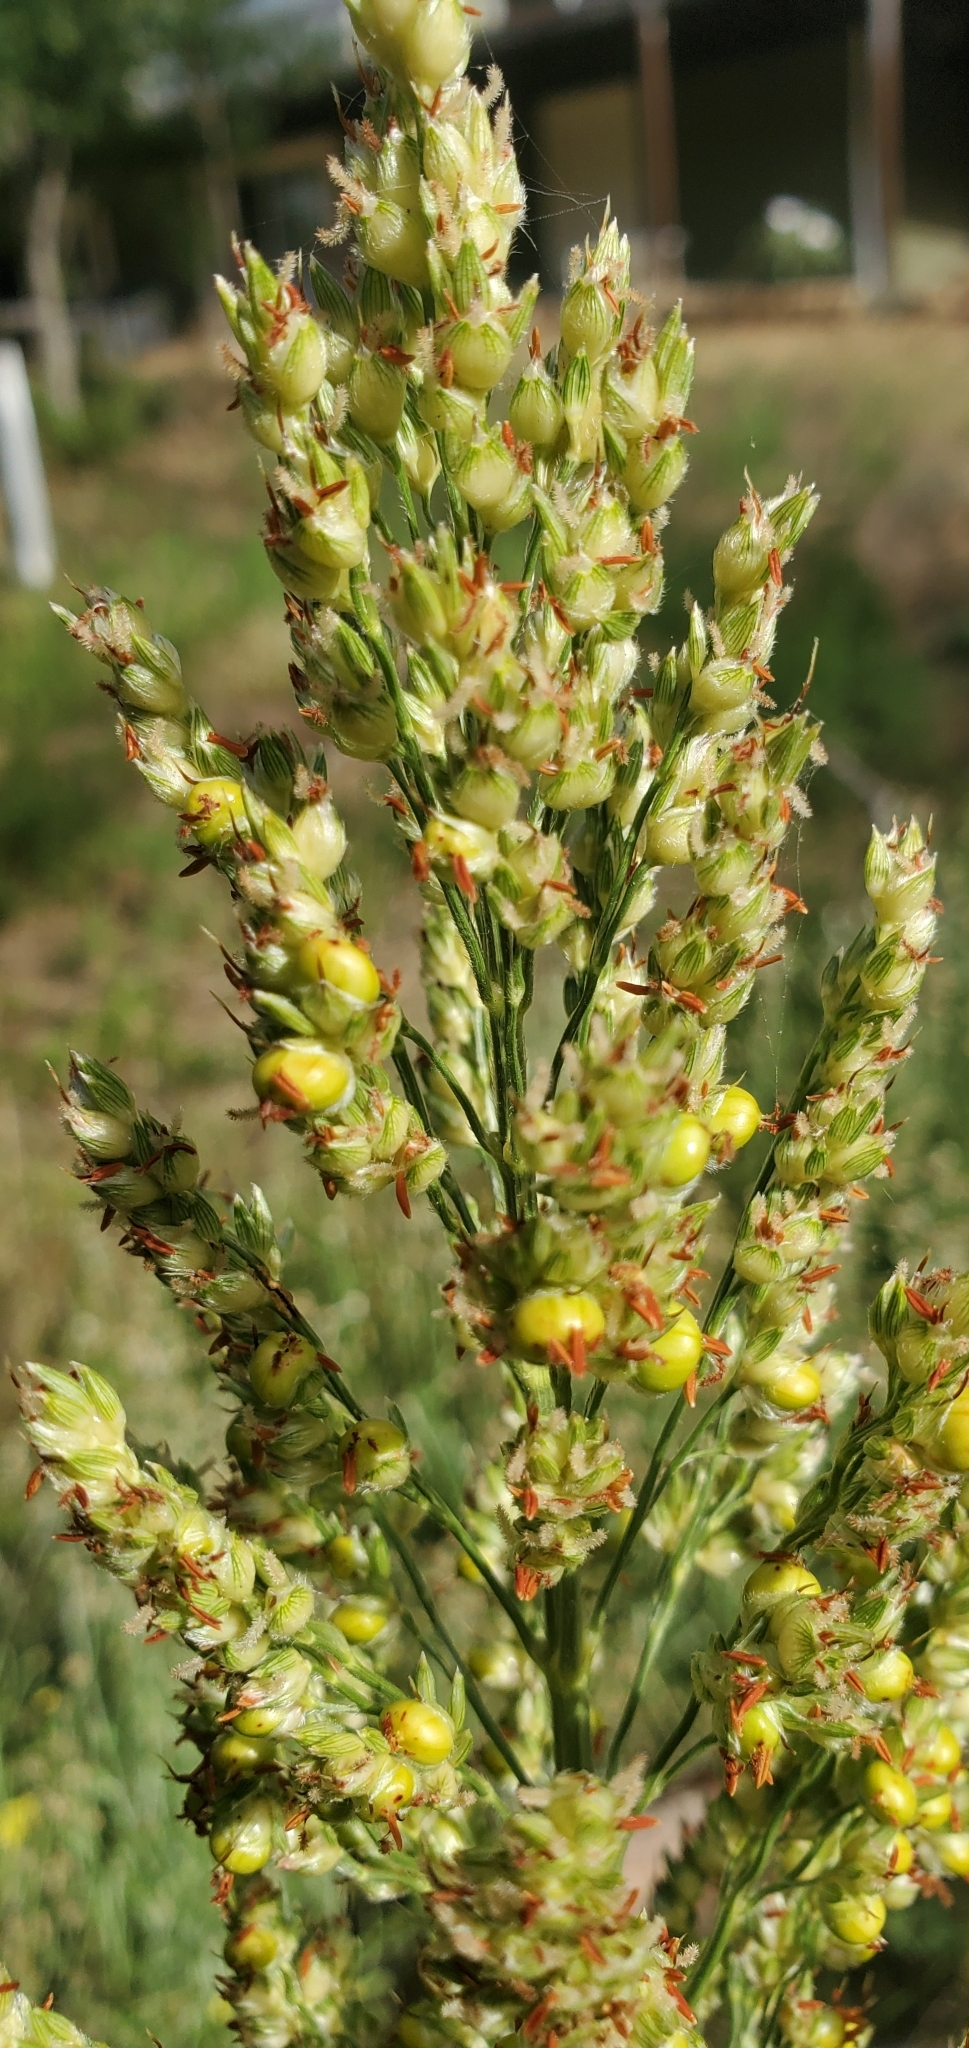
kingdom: Plantae
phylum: Tracheophyta
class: Liliopsida
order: Poales
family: Poaceae
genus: Sorghum
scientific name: Sorghum bicolor
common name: Sorghum
